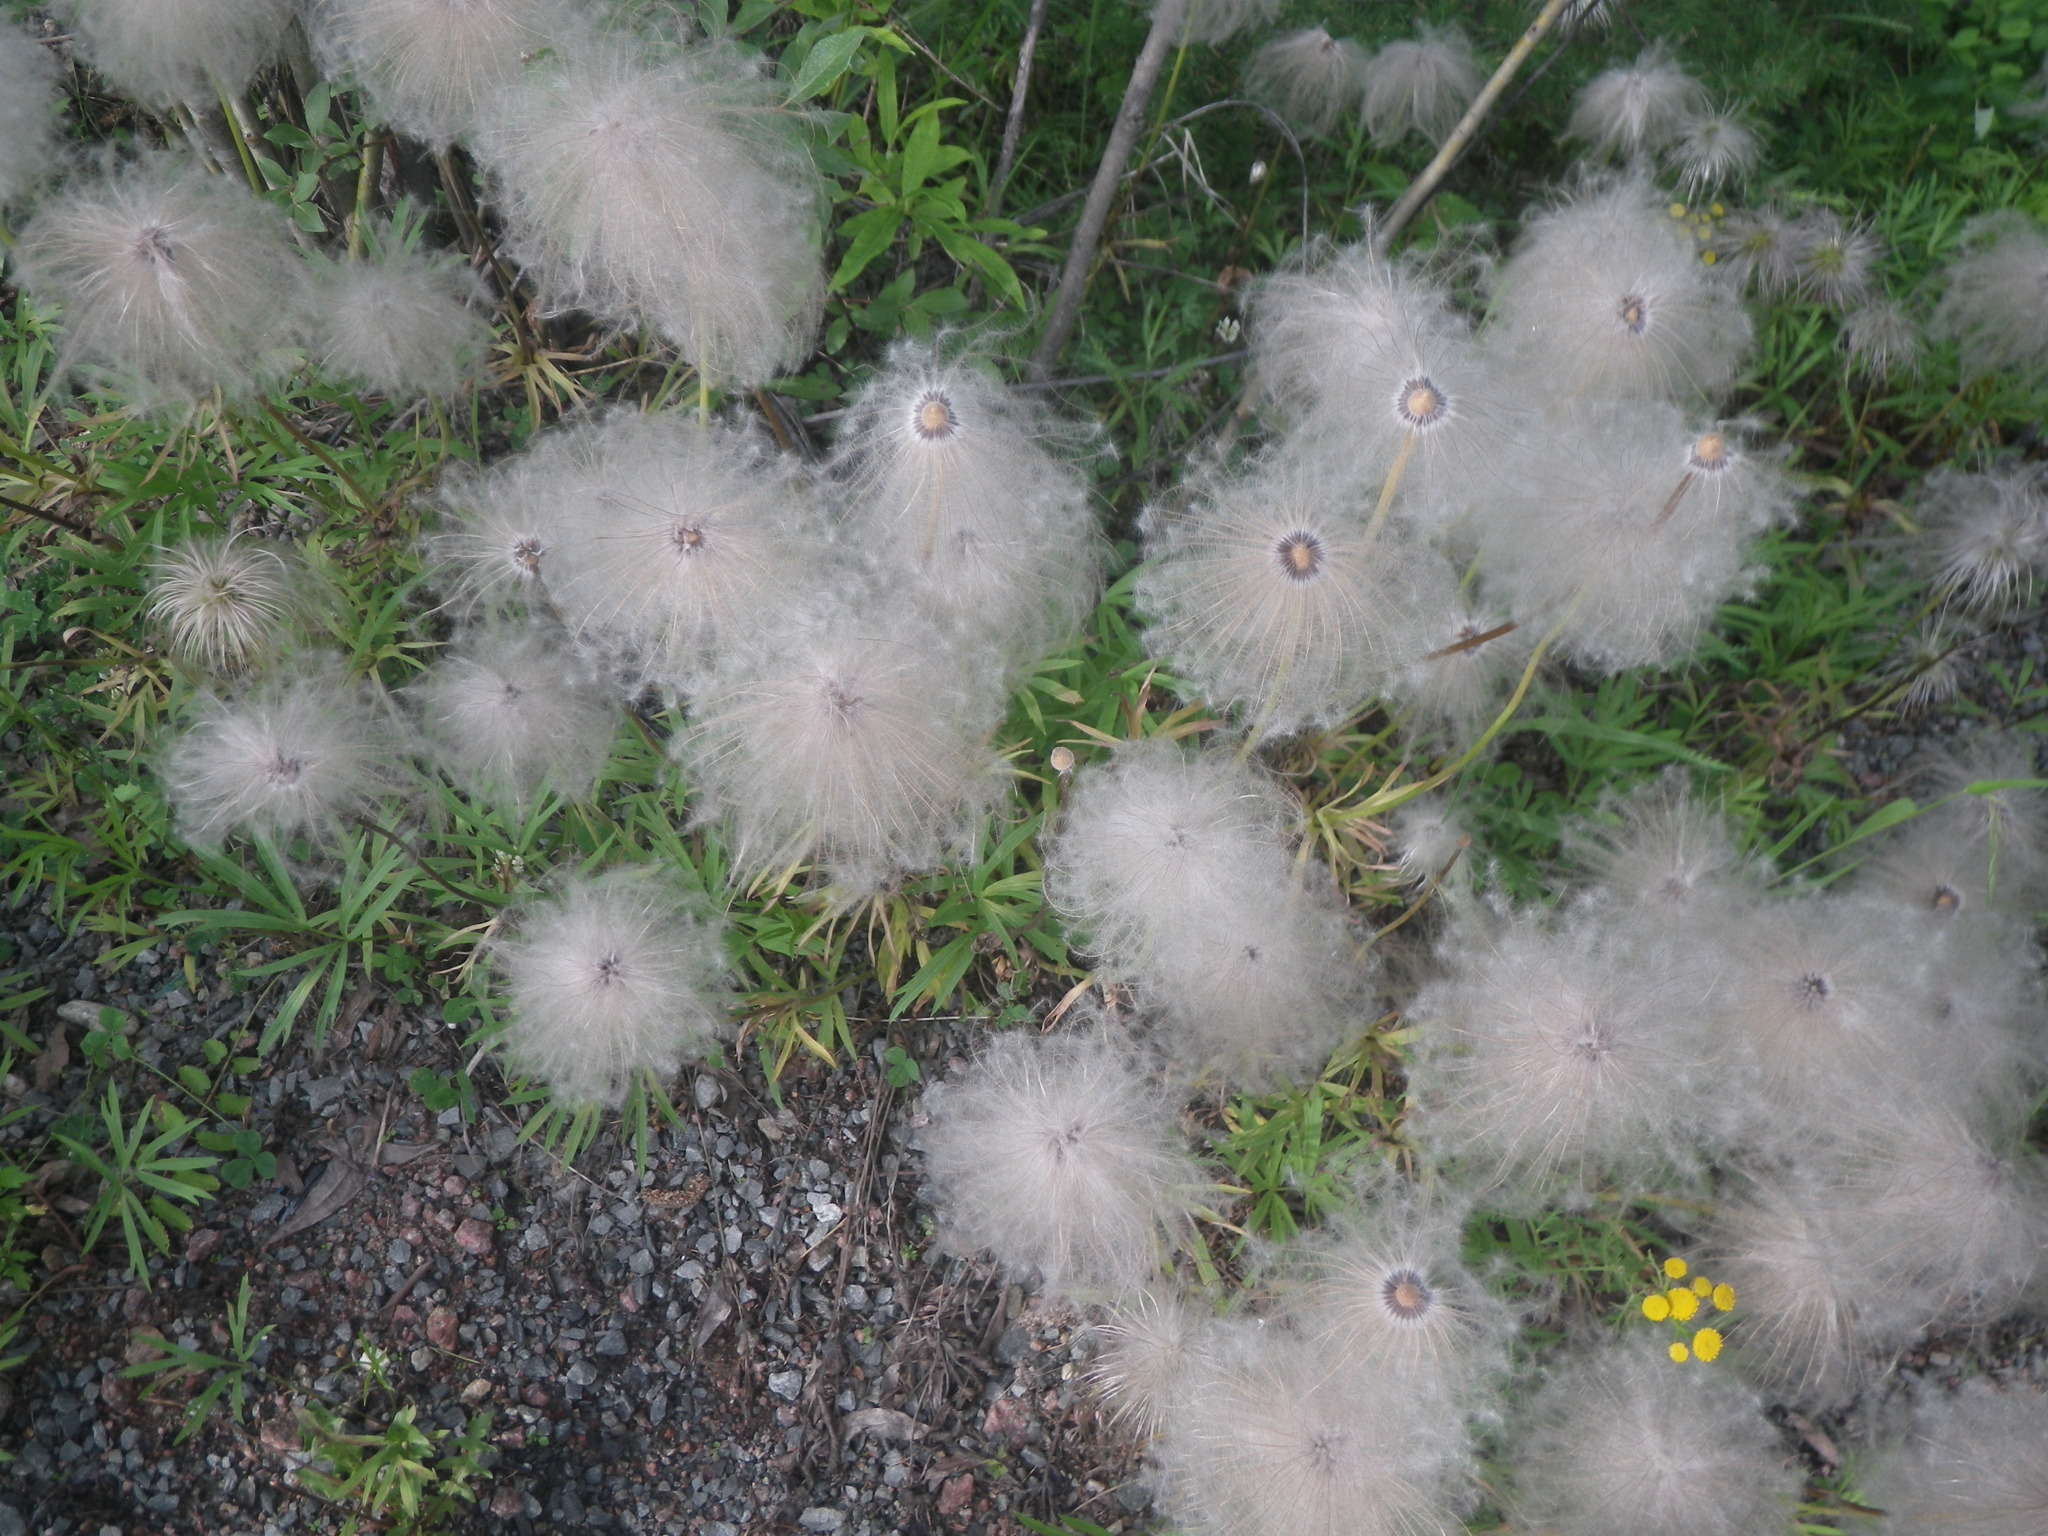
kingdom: Plantae
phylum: Tracheophyta
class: Magnoliopsida
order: Ranunculales
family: Ranunculaceae
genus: Pulsatilla
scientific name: Pulsatilla dahurica
